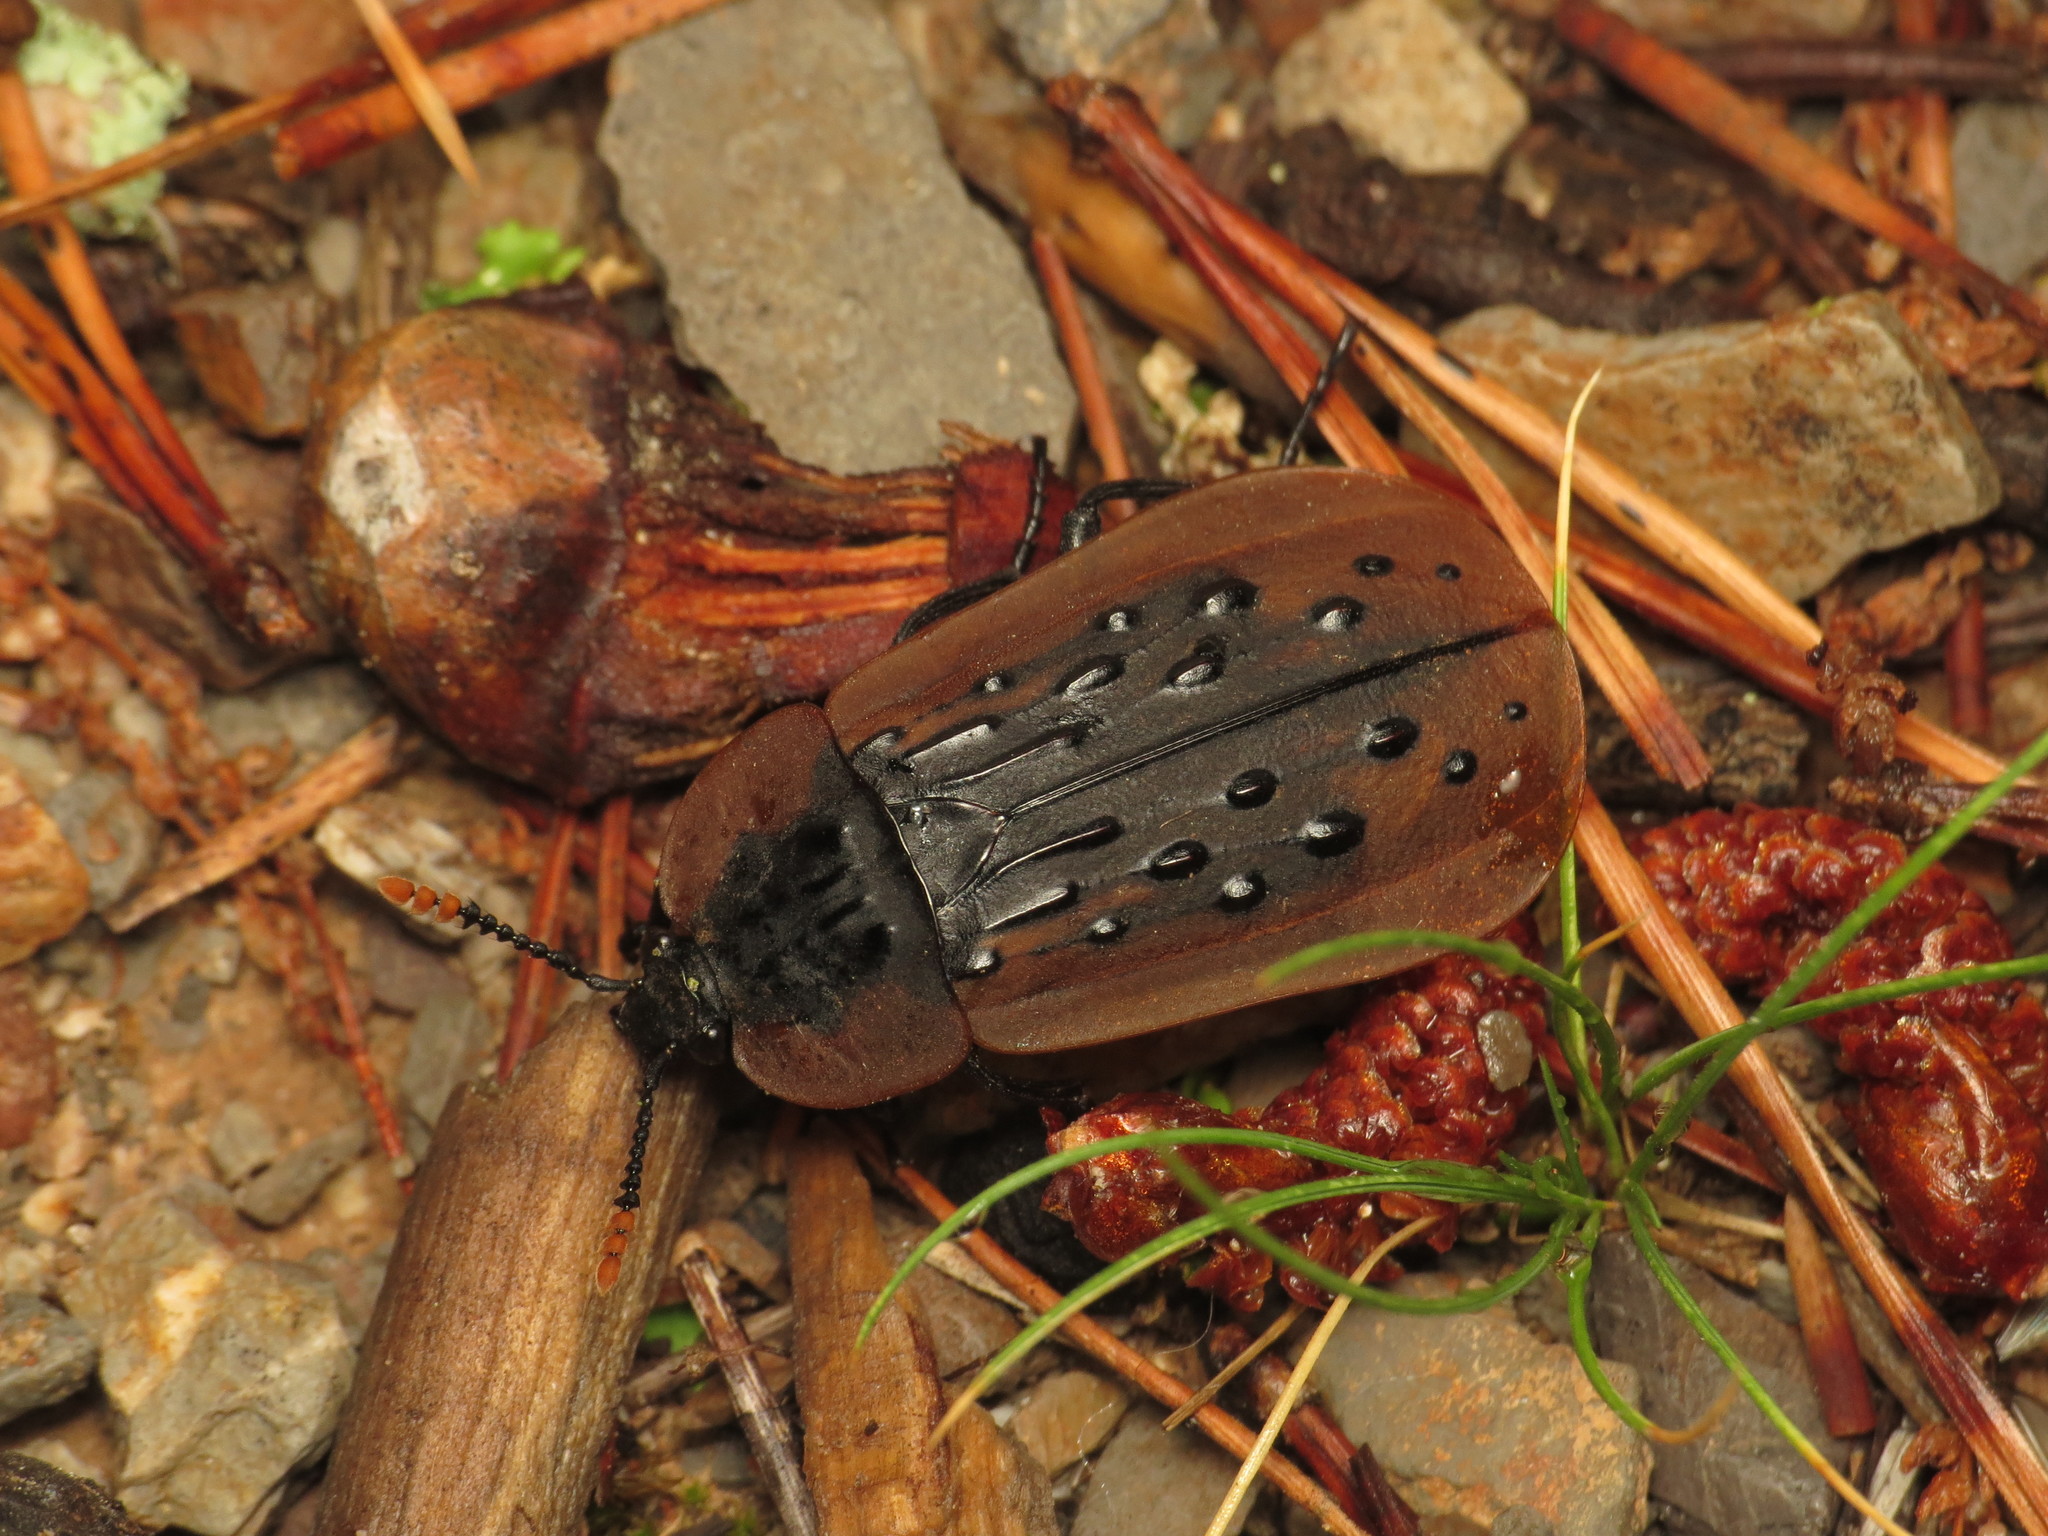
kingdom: Animalia
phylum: Arthropoda
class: Insecta
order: Coleoptera
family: Staphylinidae
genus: Ptomaphila
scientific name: Ptomaphila lacrymosa
